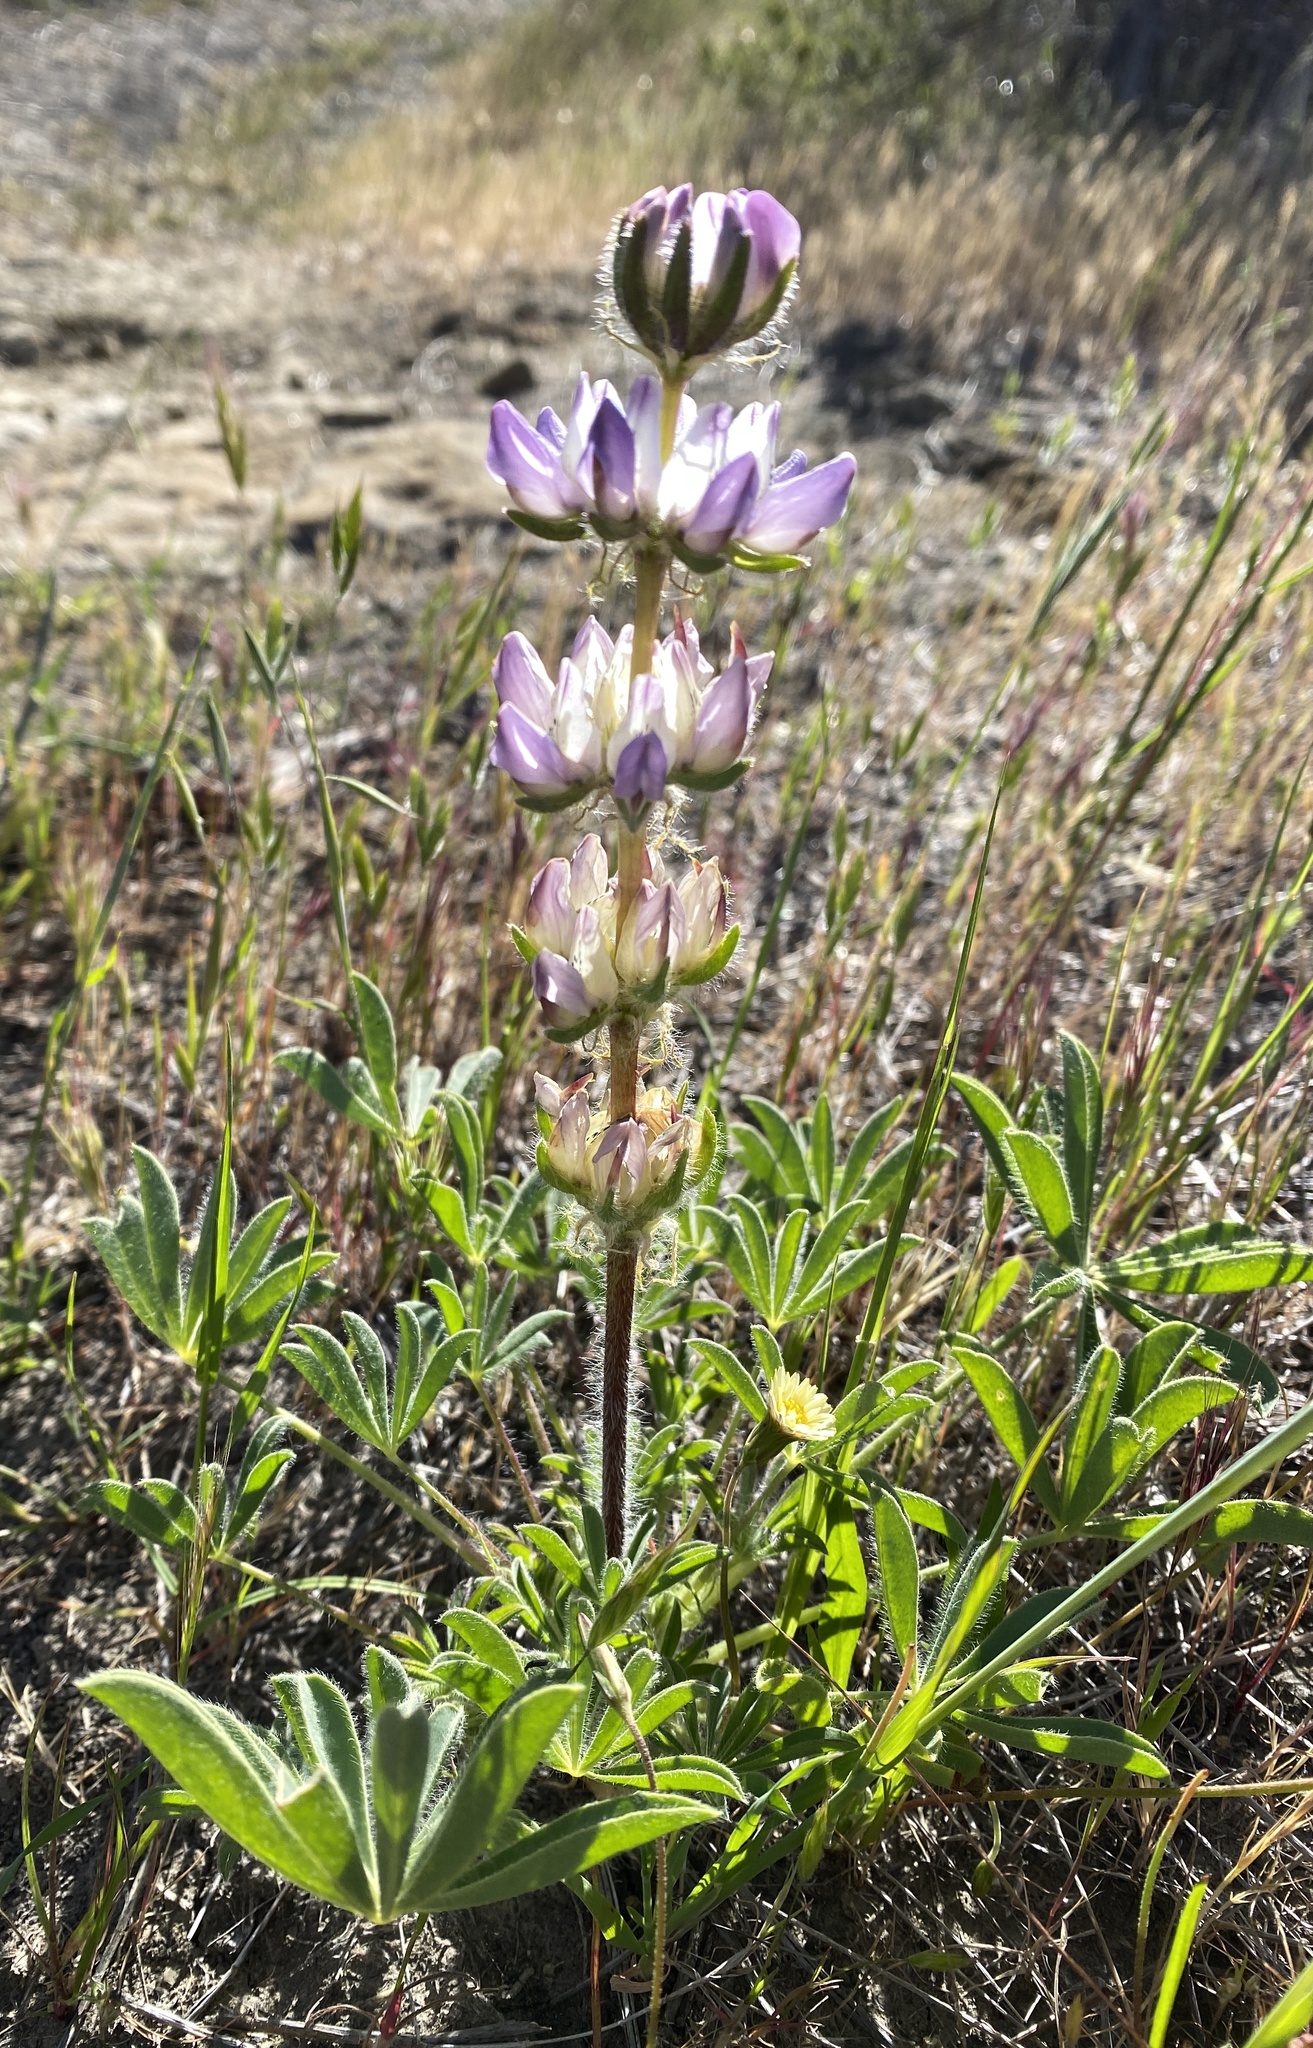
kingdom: Plantae
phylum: Tracheophyta
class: Magnoliopsida
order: Fabales
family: Fabaceae
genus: Lupinus
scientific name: Lupinus microcarpus
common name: Chick lupine
